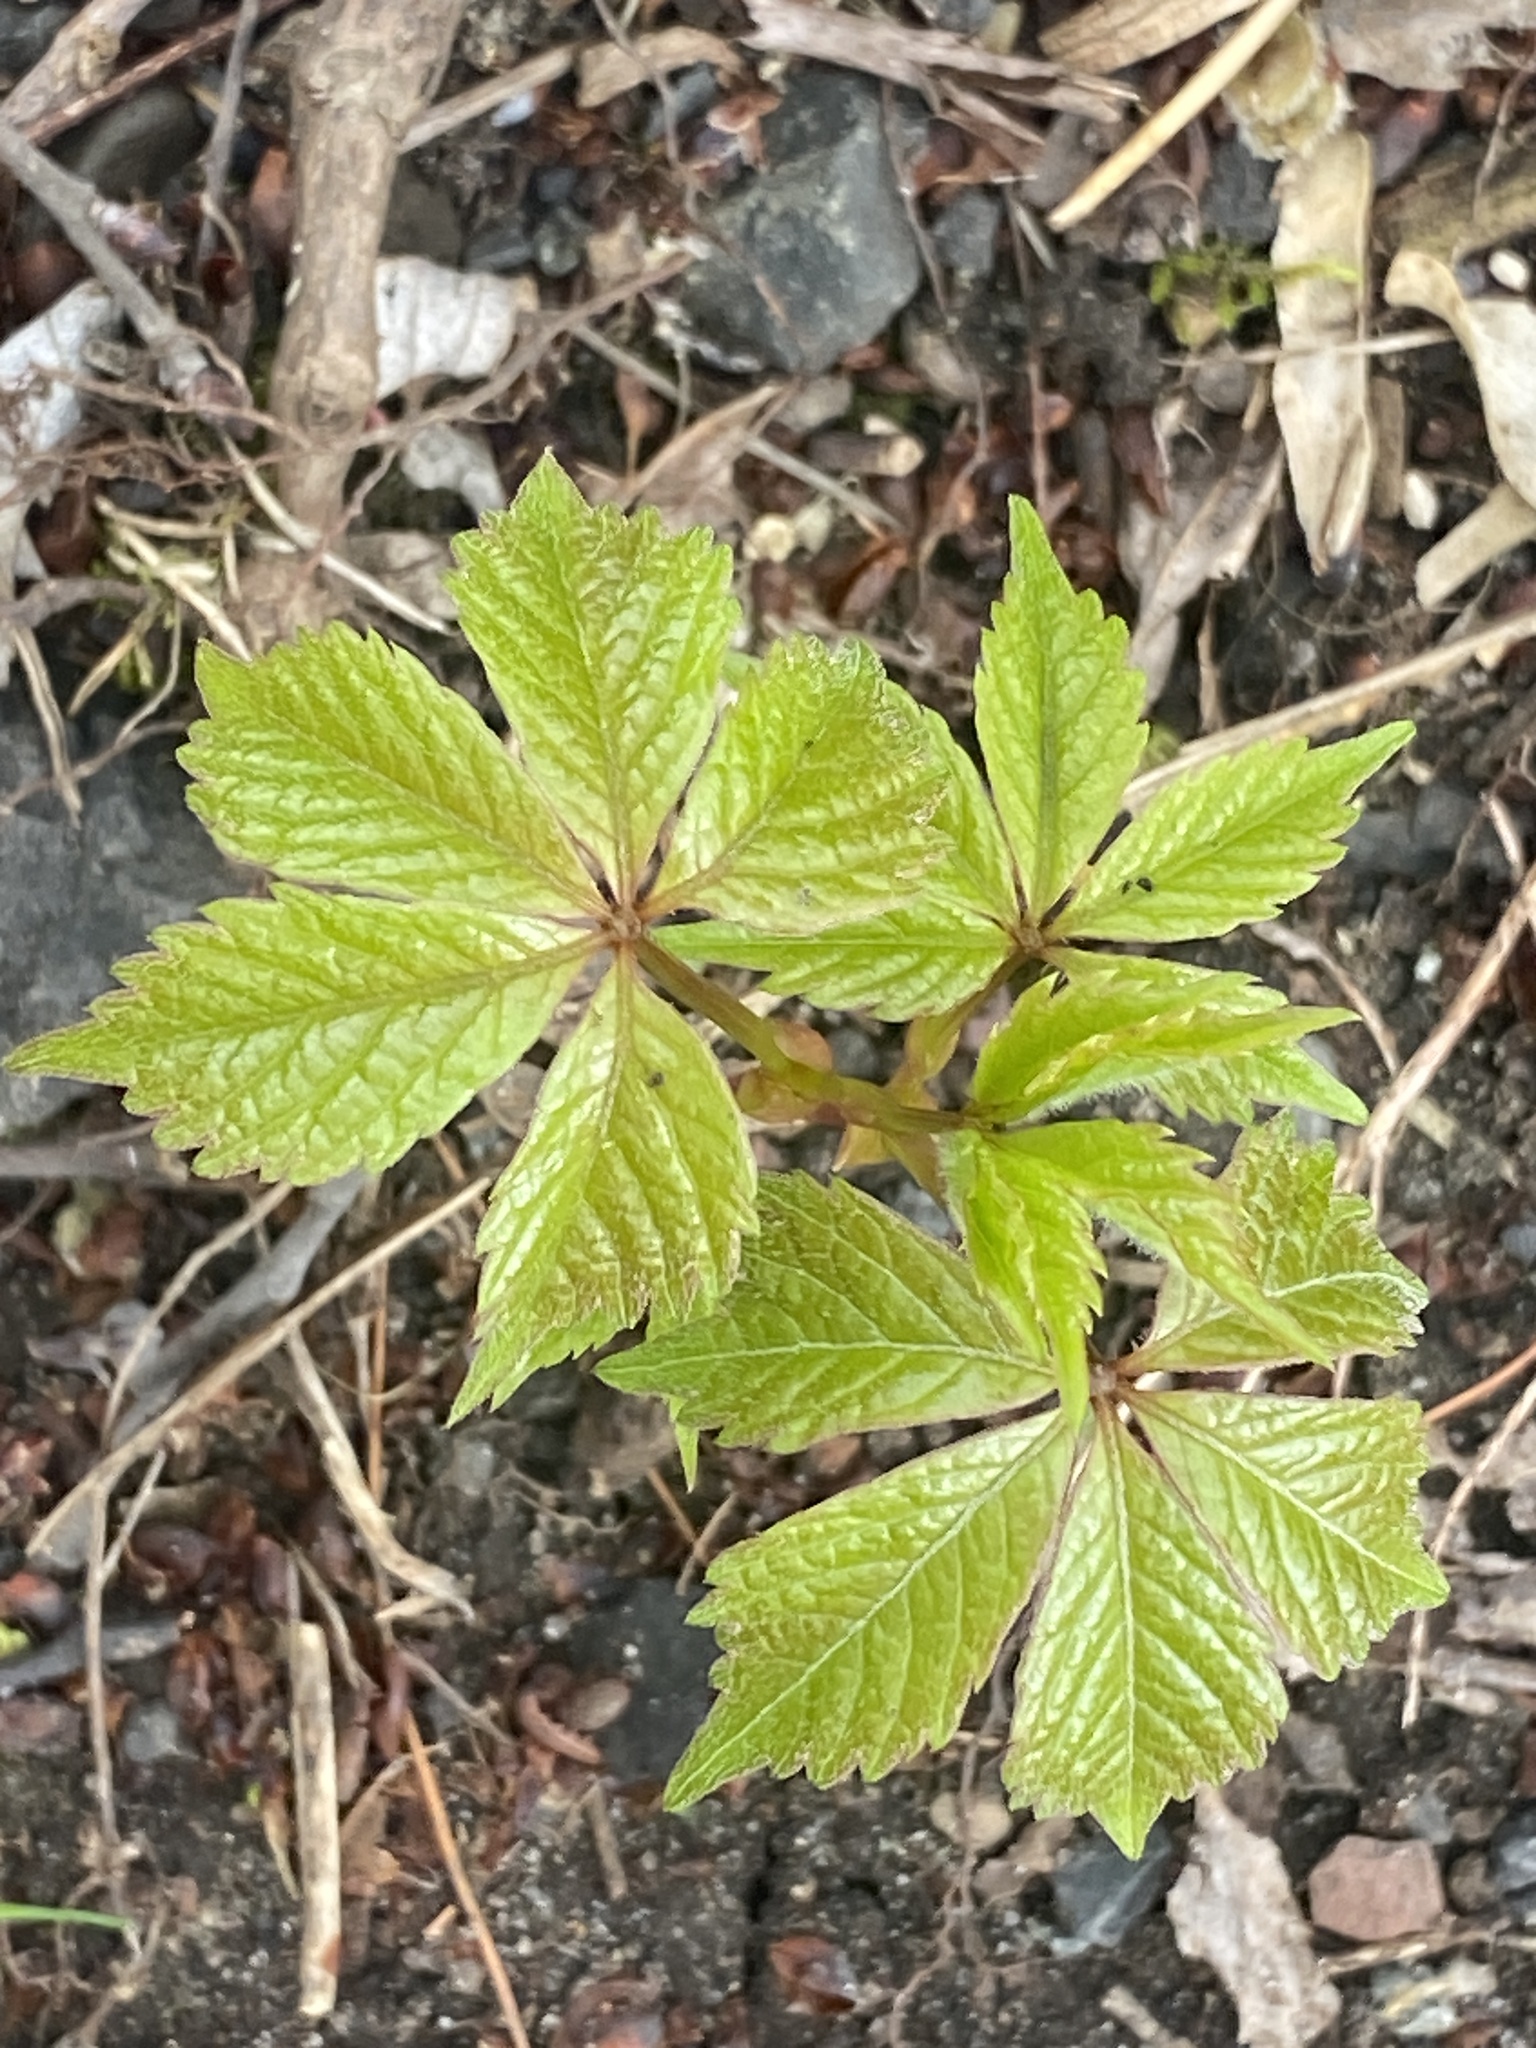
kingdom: Plantae
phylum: Tracheophyta
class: Magnoliopsida
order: Vitales
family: Vitaceae
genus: Parthenocissus
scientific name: Parthenocissus quinquefolia
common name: Virginia-creeper
